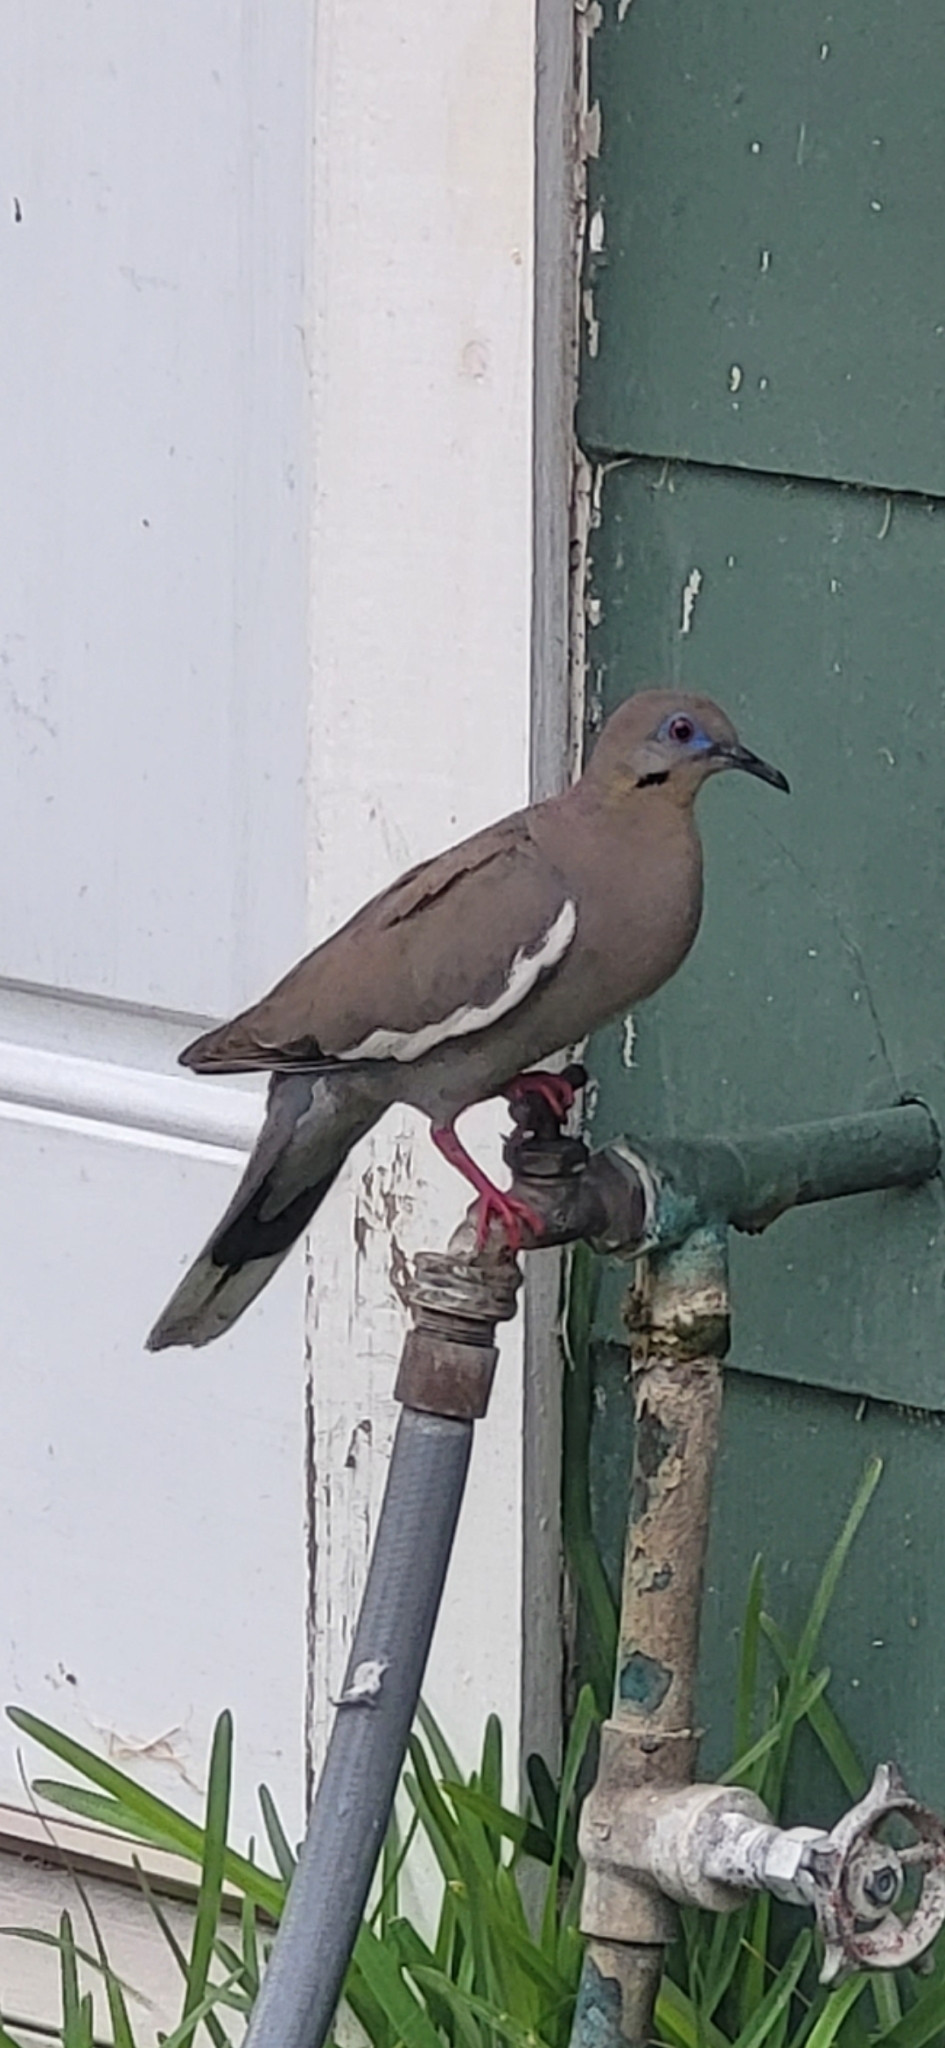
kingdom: Animalia
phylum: Chordata
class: Aves
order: Columbiformes
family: Columbidae
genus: Zenaida
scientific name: Zenaida asiatica
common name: White-winged dove
